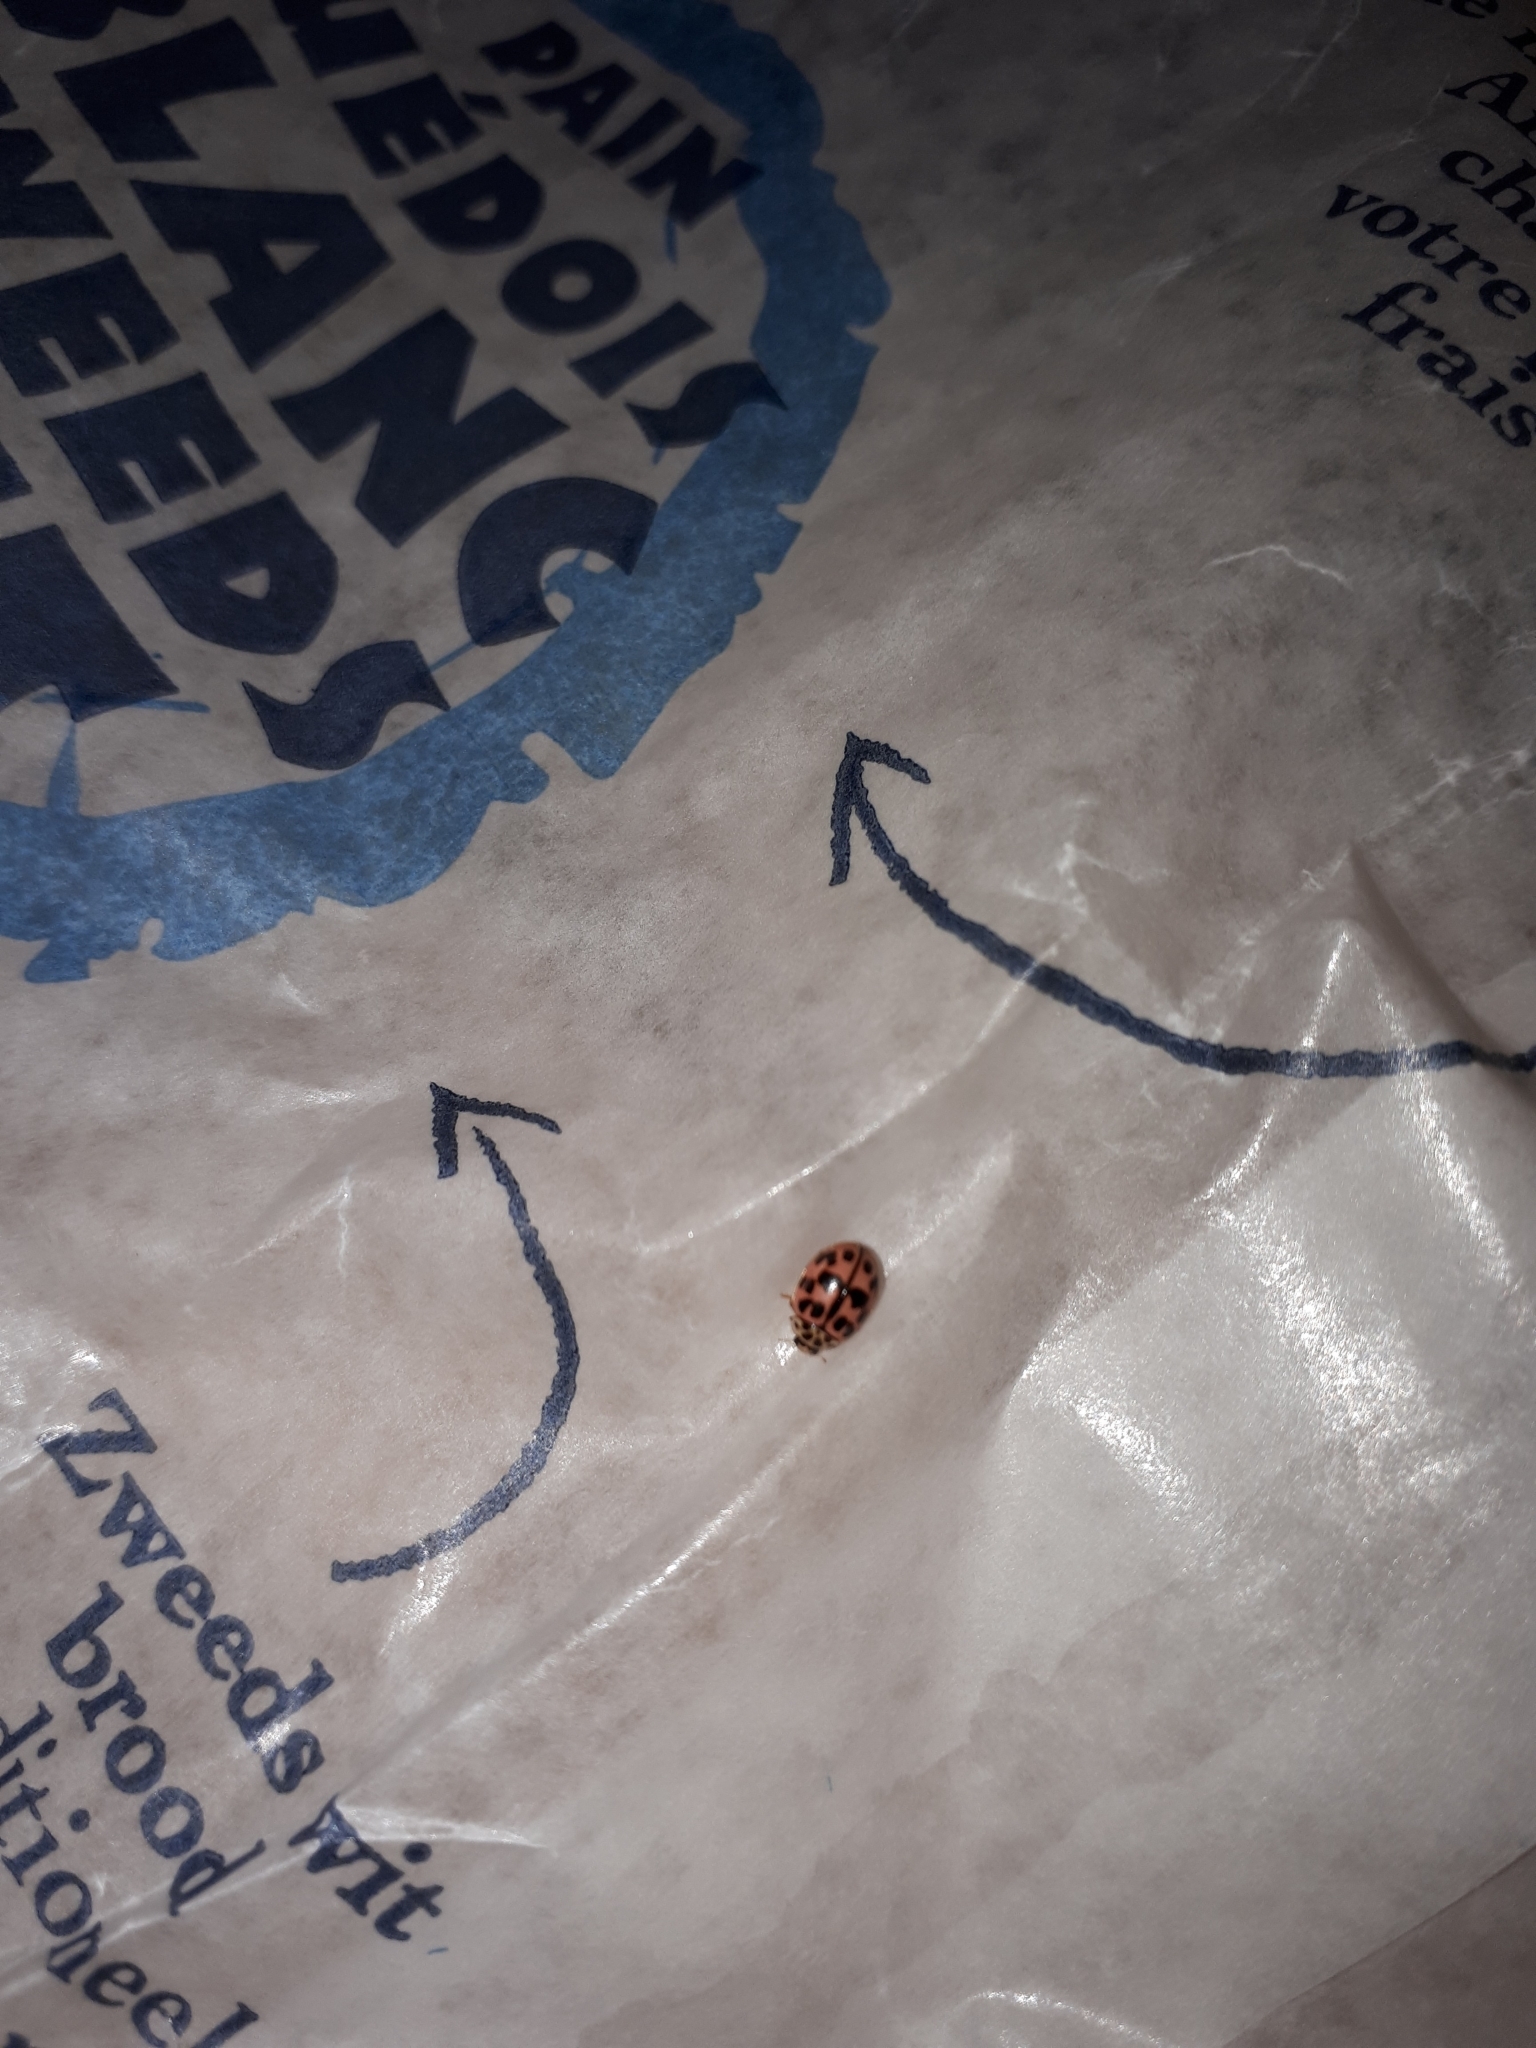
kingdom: Animalia
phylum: Arthropoda
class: Insecta
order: Coleoptera
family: Coccinellidae
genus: Oenopia
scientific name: Oenopia conglobata
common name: Ladybird beetle
